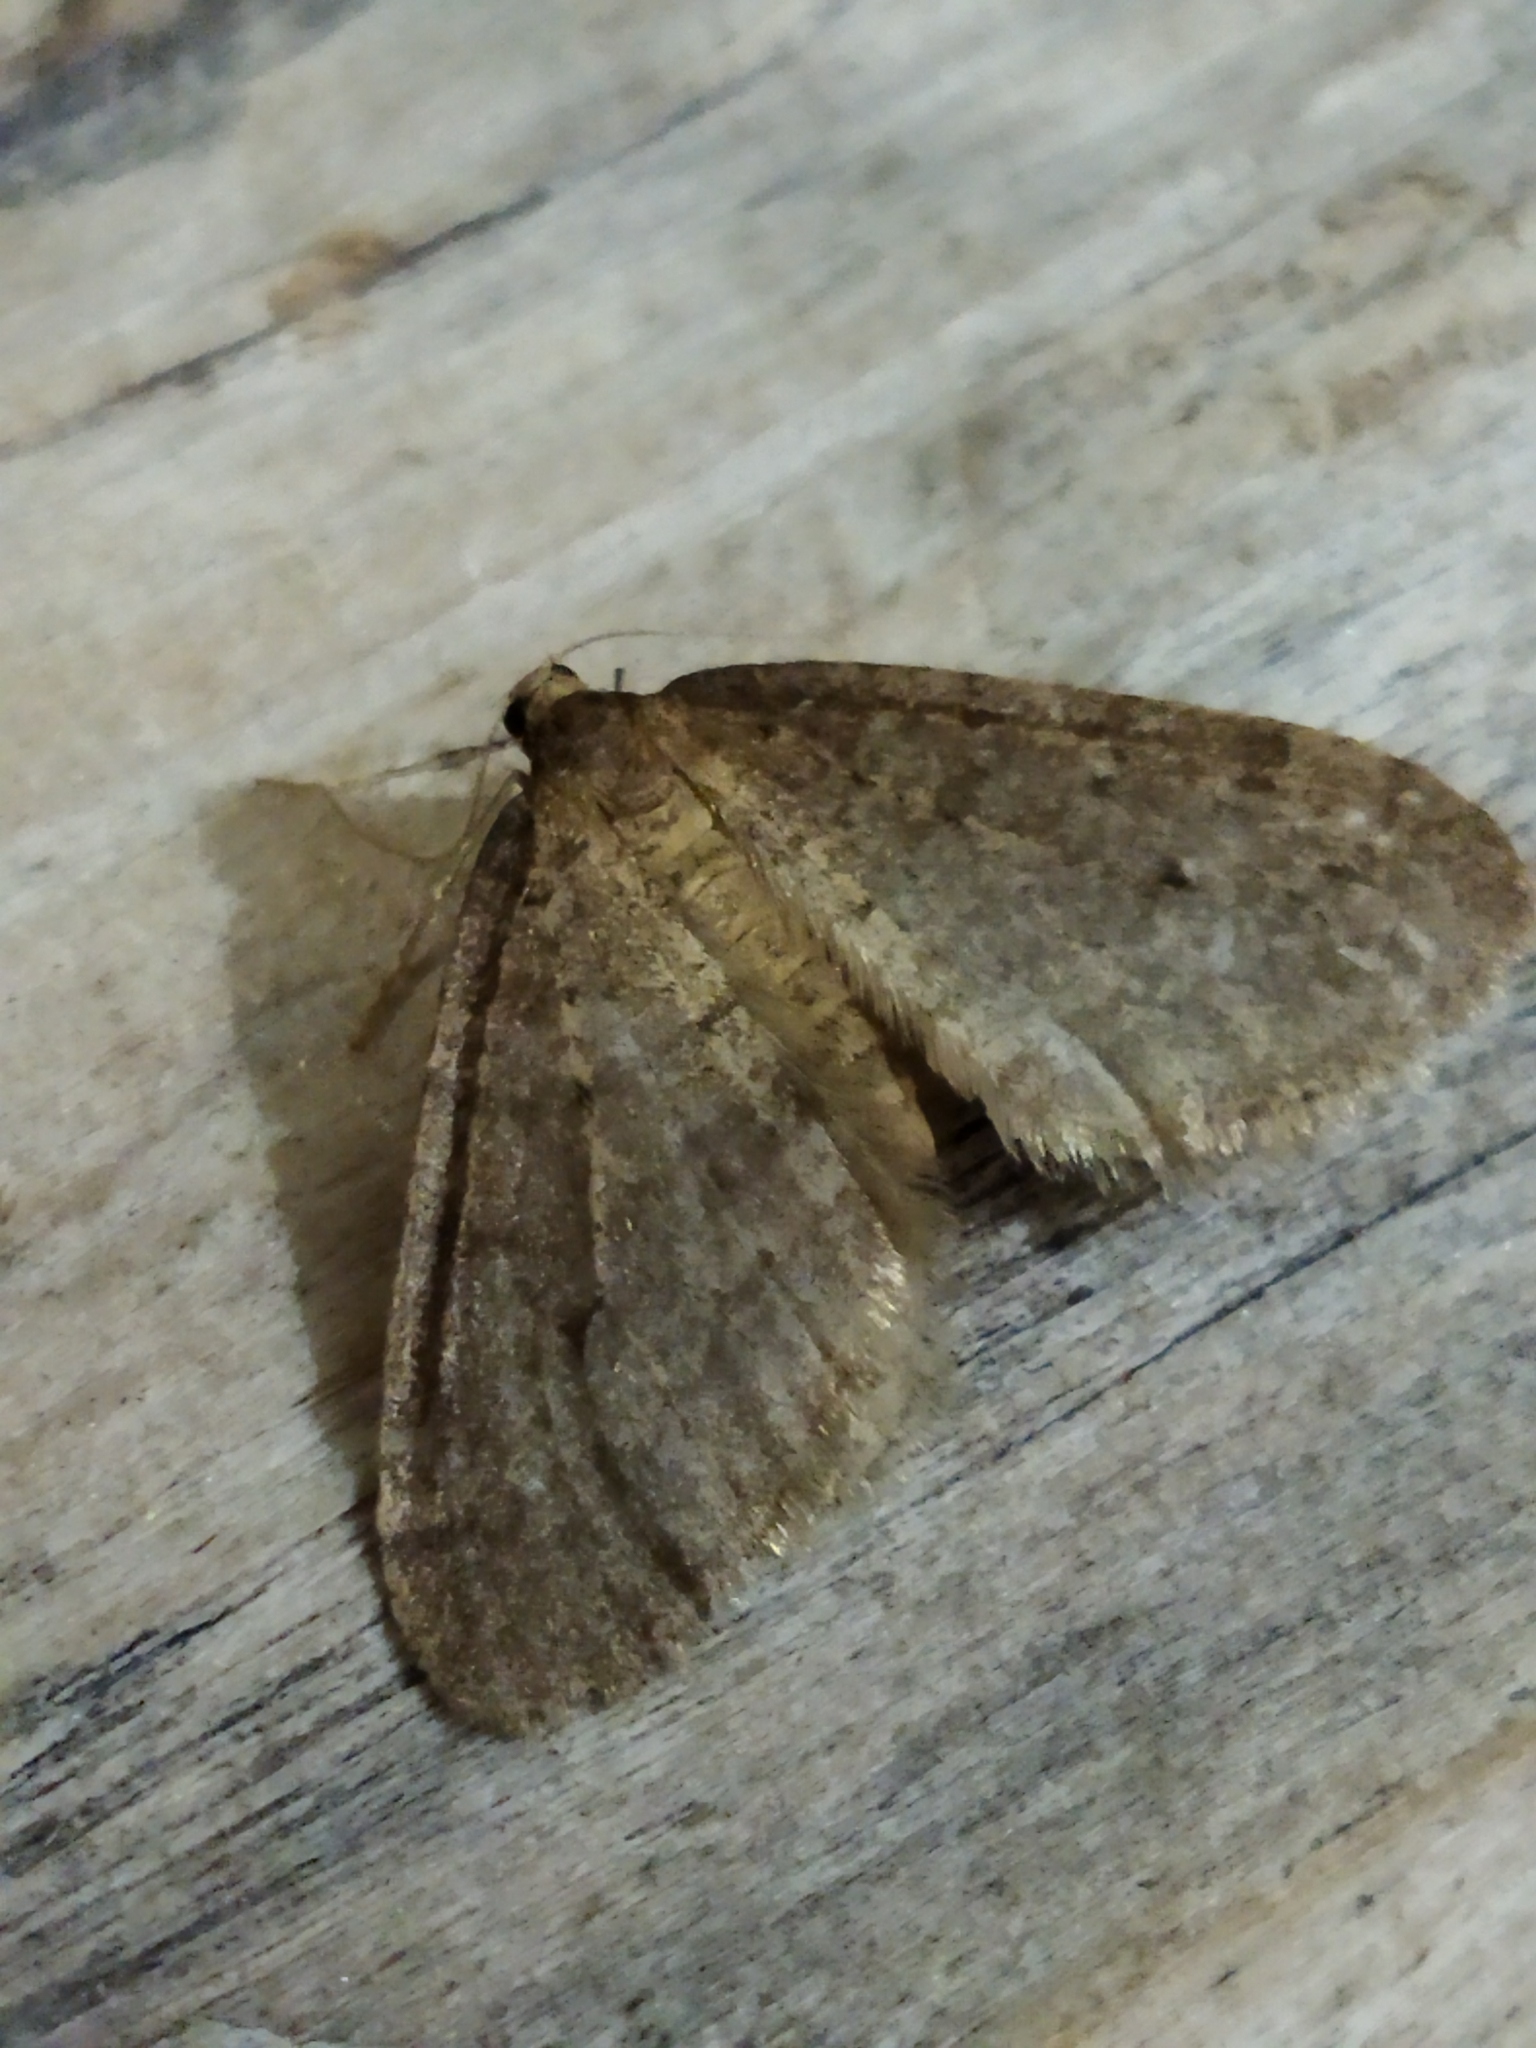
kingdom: Animalia
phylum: Arthropoda
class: Insecta
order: Lepidoptera
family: Geometridae
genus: Operophtera
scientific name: Operophtera brumata
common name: Winter moth
